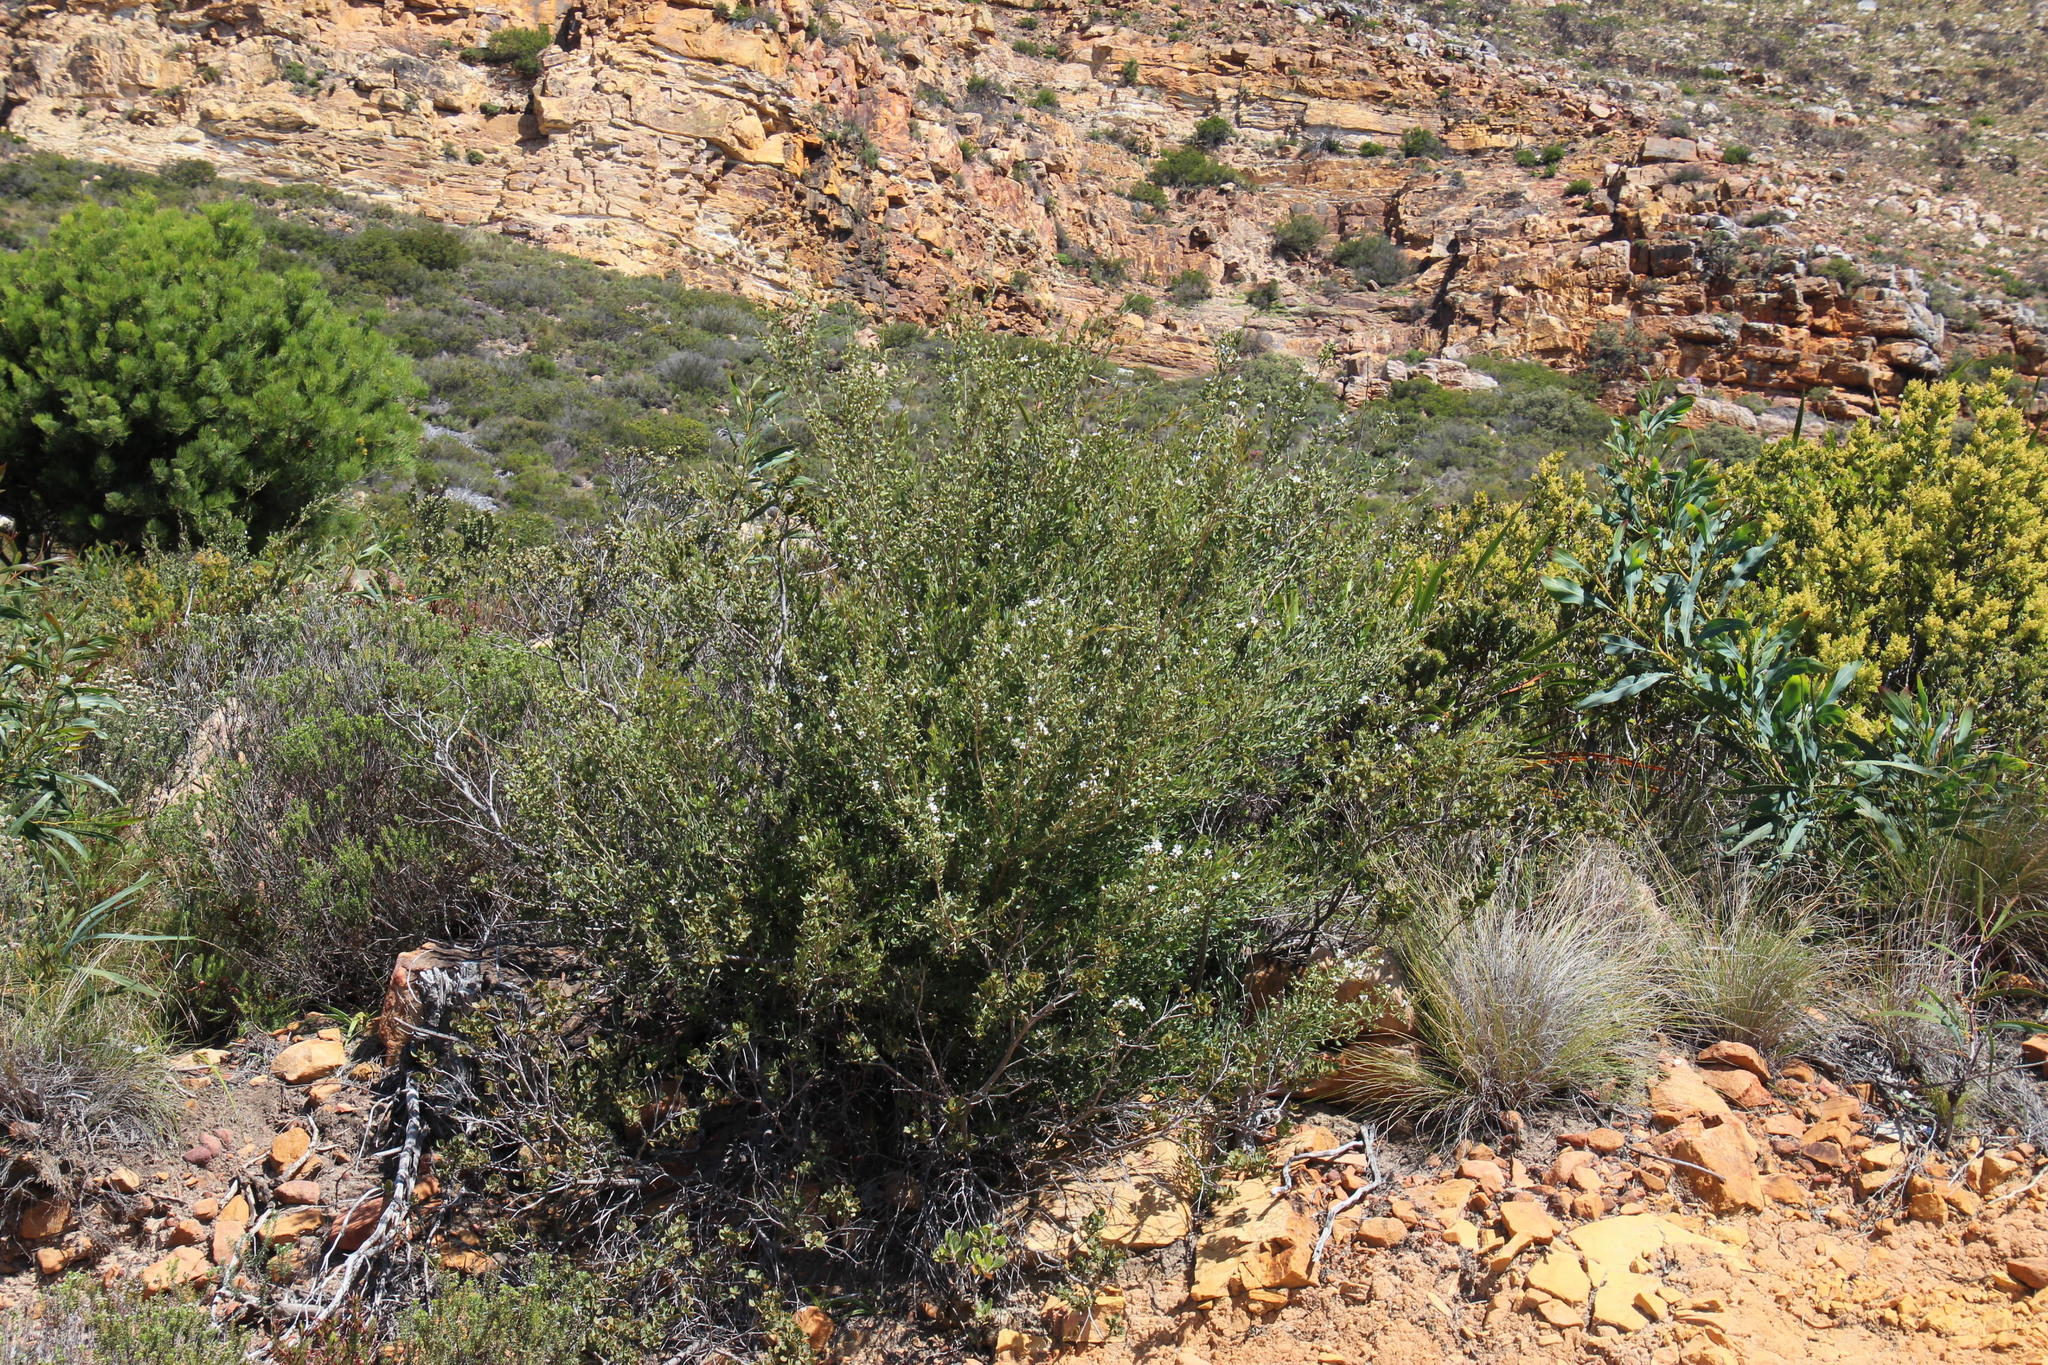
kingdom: Plantae
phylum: Tracheophyta
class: Magnoliopsida
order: Myrtales
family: Myrtaceae
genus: Leptospermum
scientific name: Leptospermum laevigatum
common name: Australian teatree
